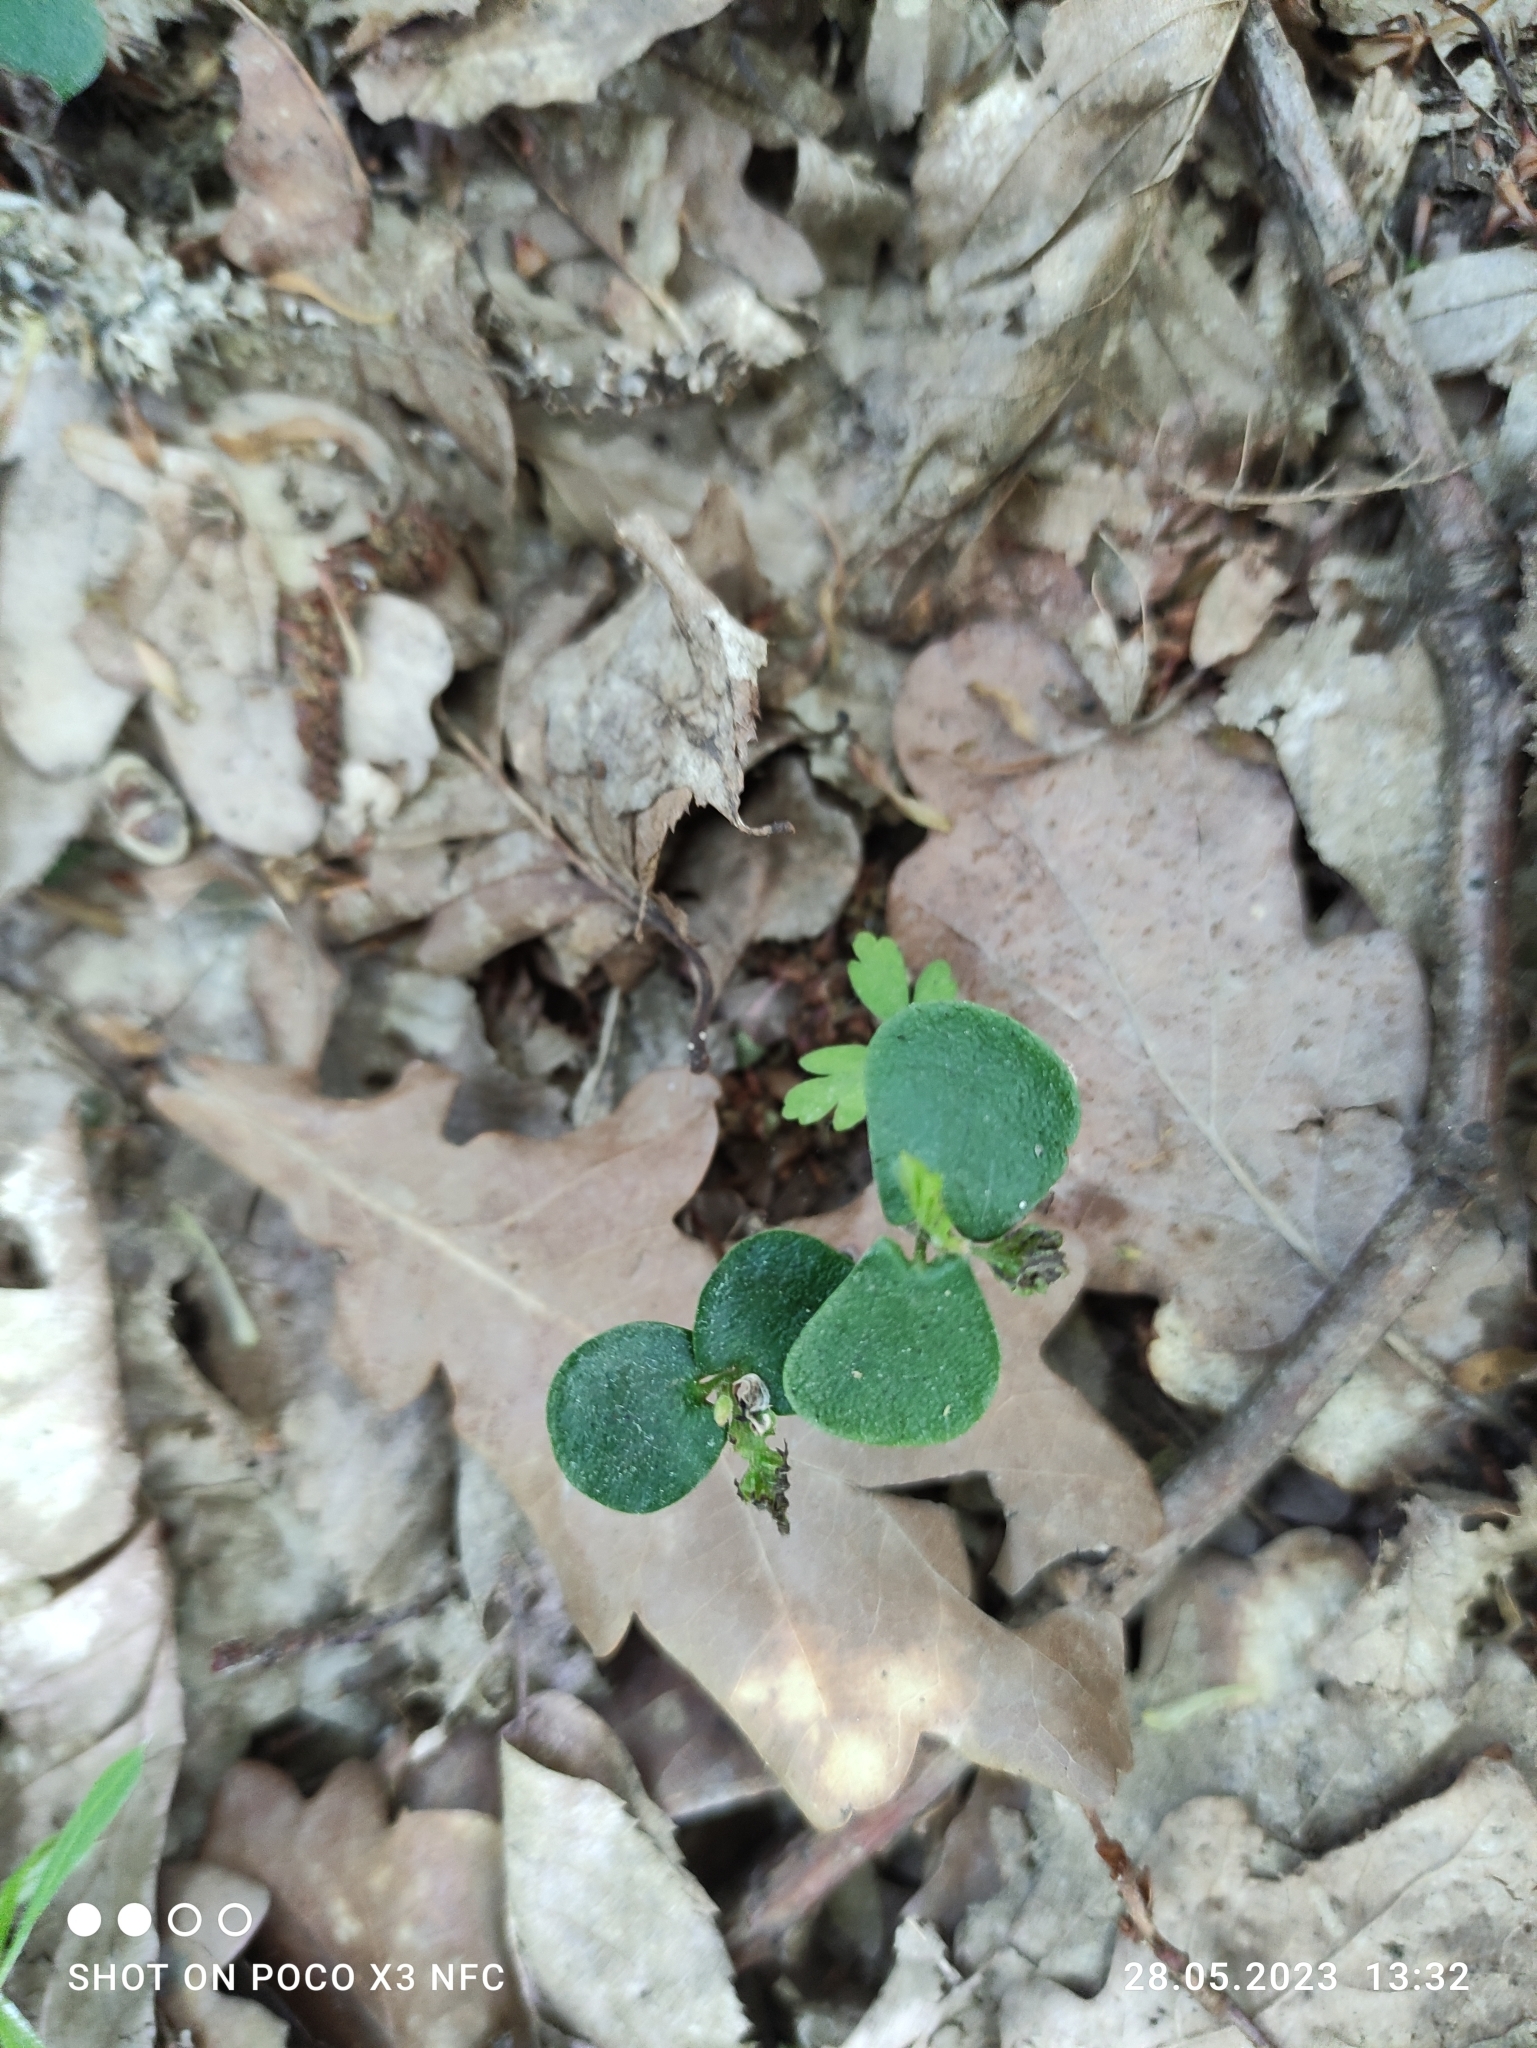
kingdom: Plantae
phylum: Tracheophyta
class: Magnoliopsida
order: Fagales
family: Fagaceae
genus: Fagus
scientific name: Fagus sylvatica
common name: Beech
